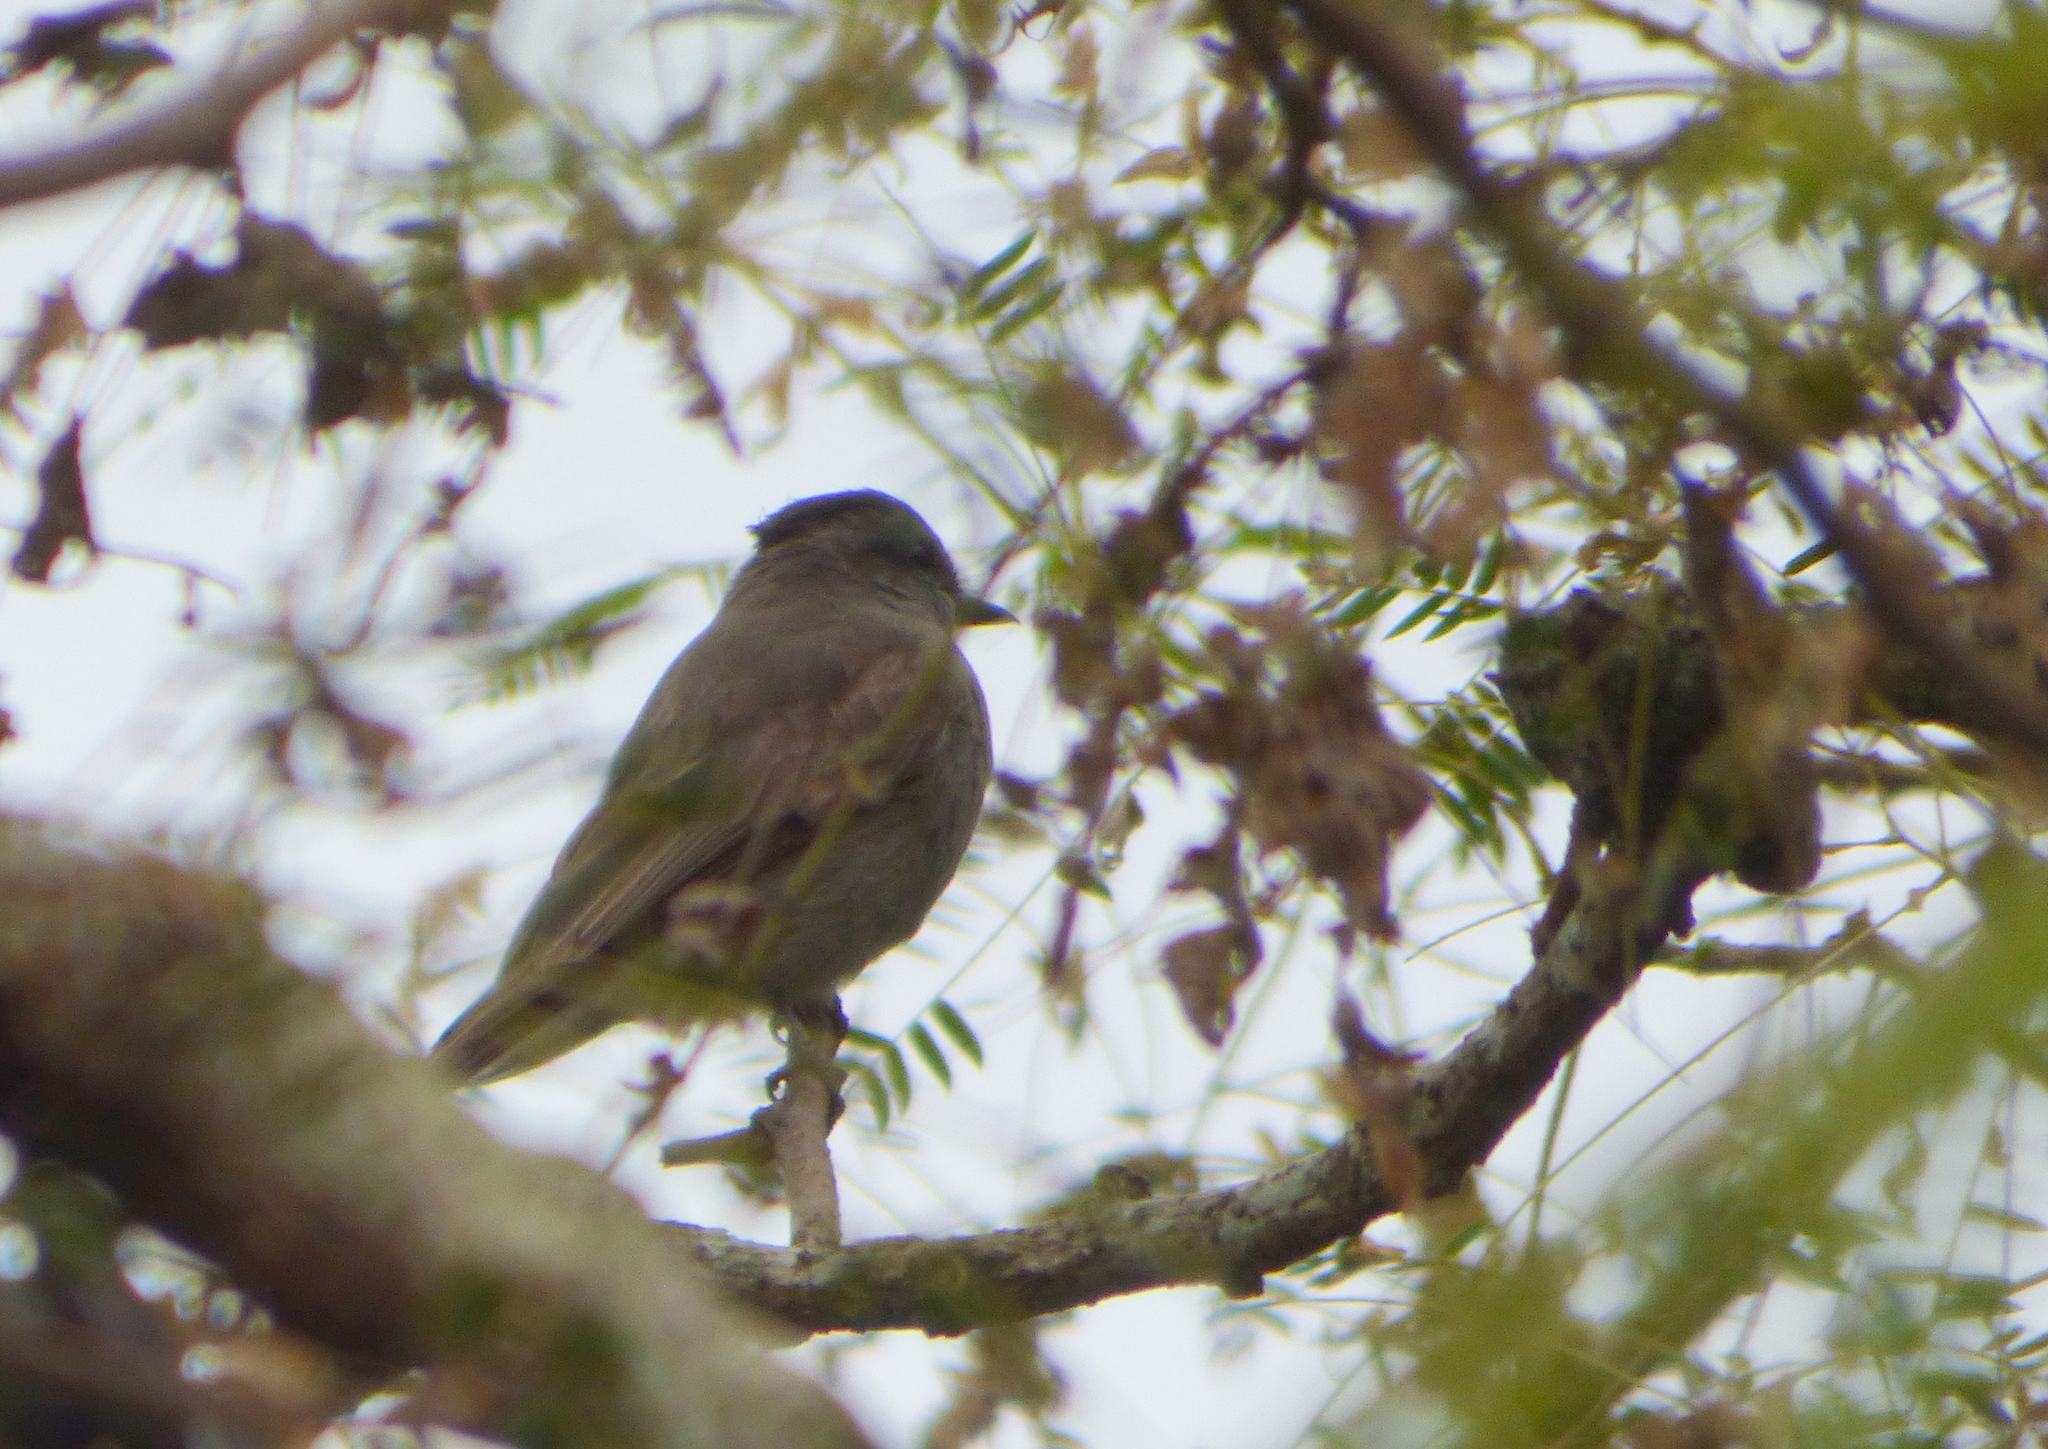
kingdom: Animalia
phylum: Chordata
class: Aves
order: Passeriformes
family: Tyrannidae
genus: Empidonomus
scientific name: Empidonomus aurantioatrocristatus
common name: Crowned slaty flycatcher
